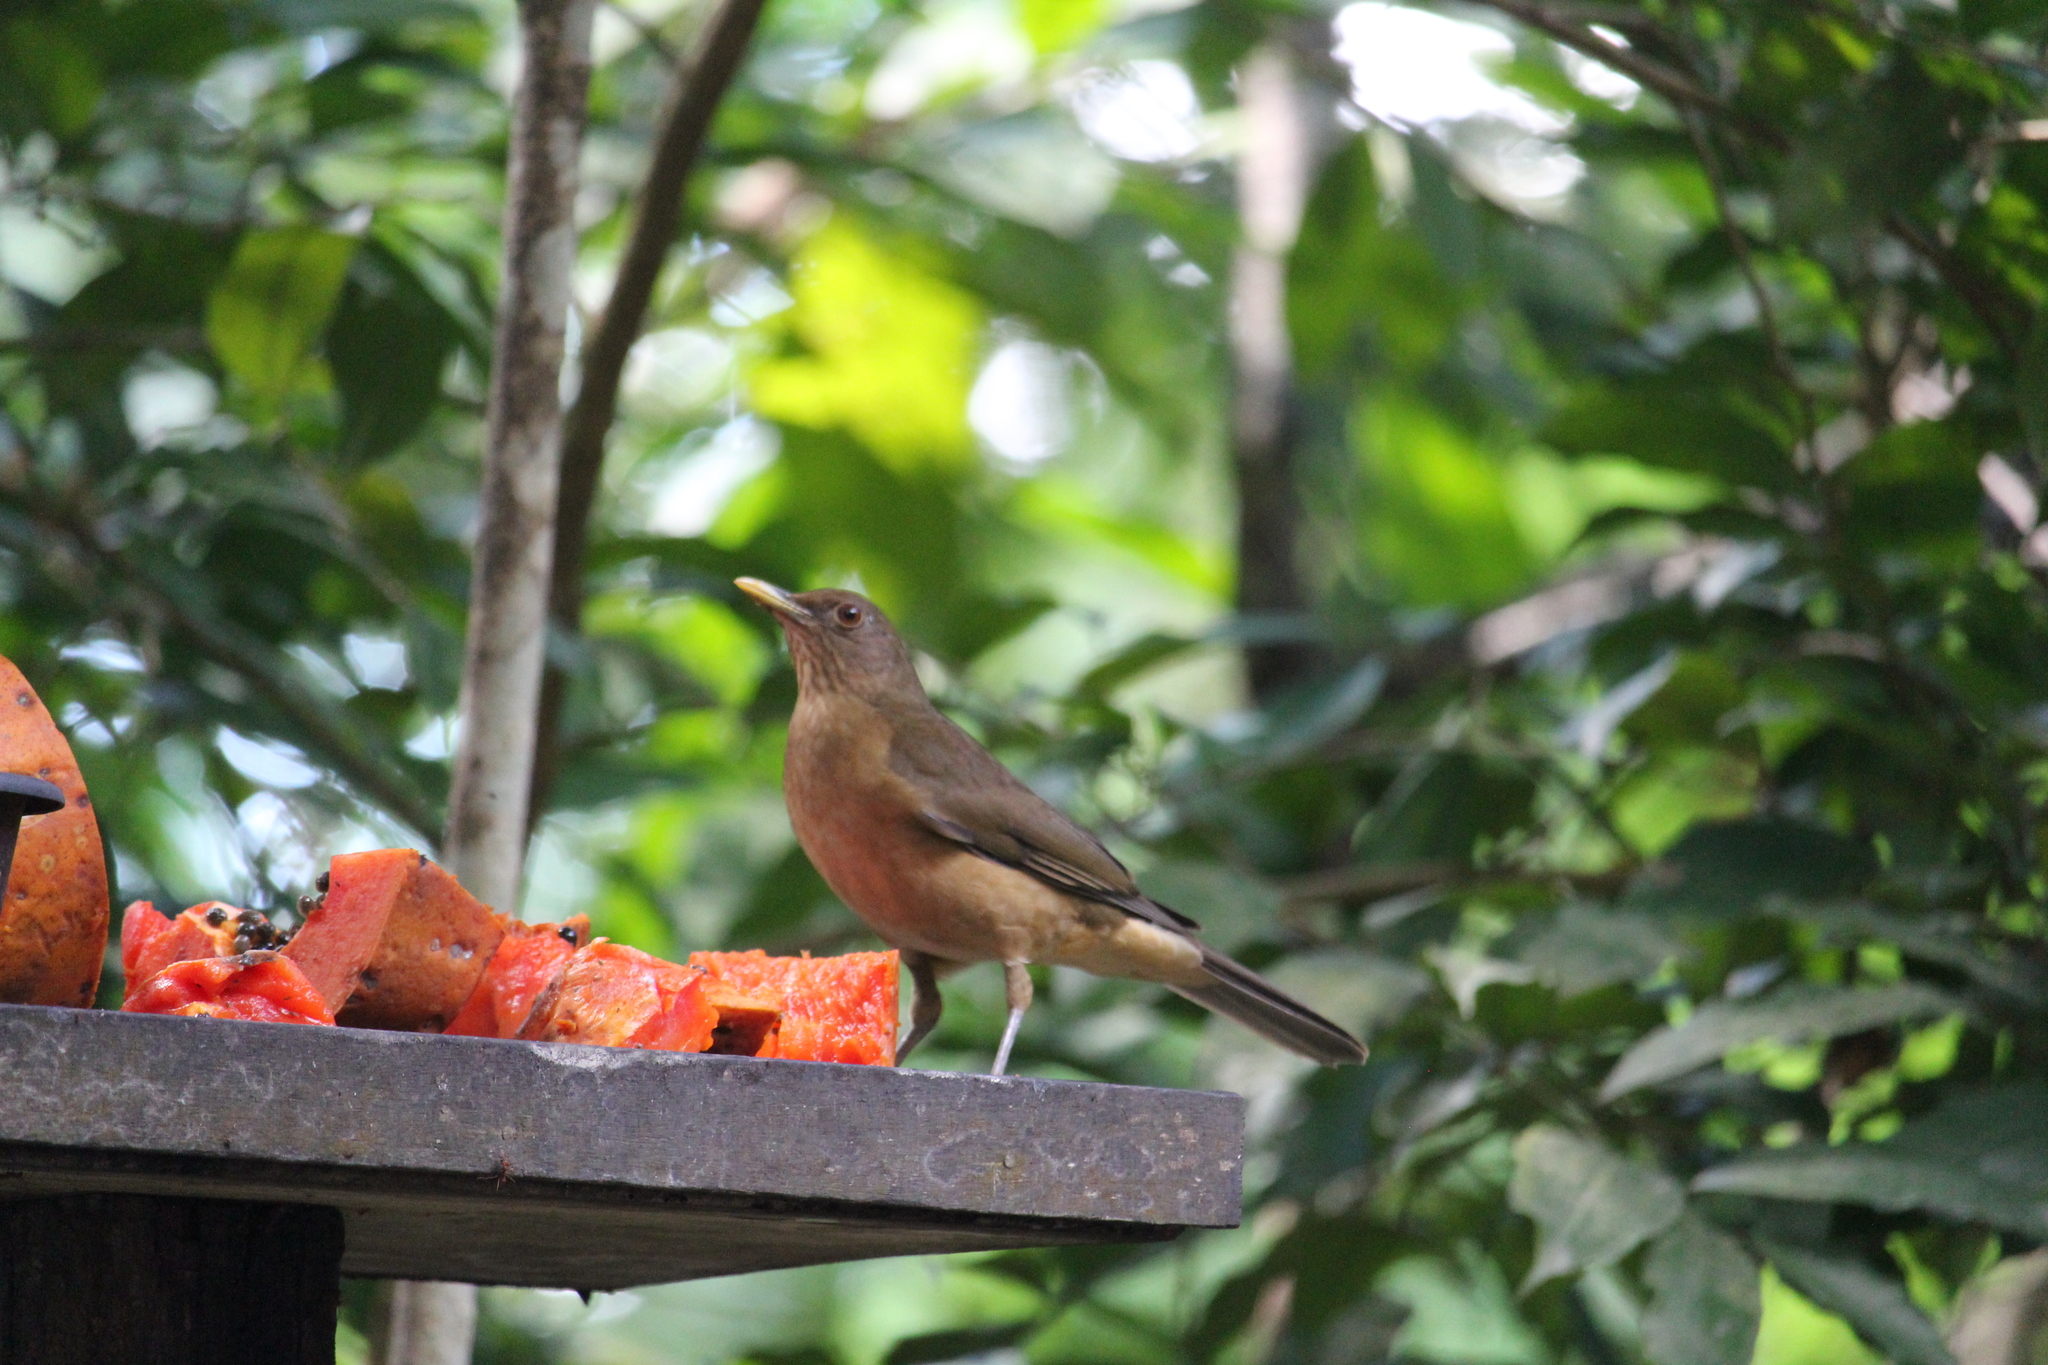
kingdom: Animalia
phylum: Chordata
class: Aves
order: Passeriformes
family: Turdidae
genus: Turdus
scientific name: Turdus grayi
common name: Clay-colored thrush
